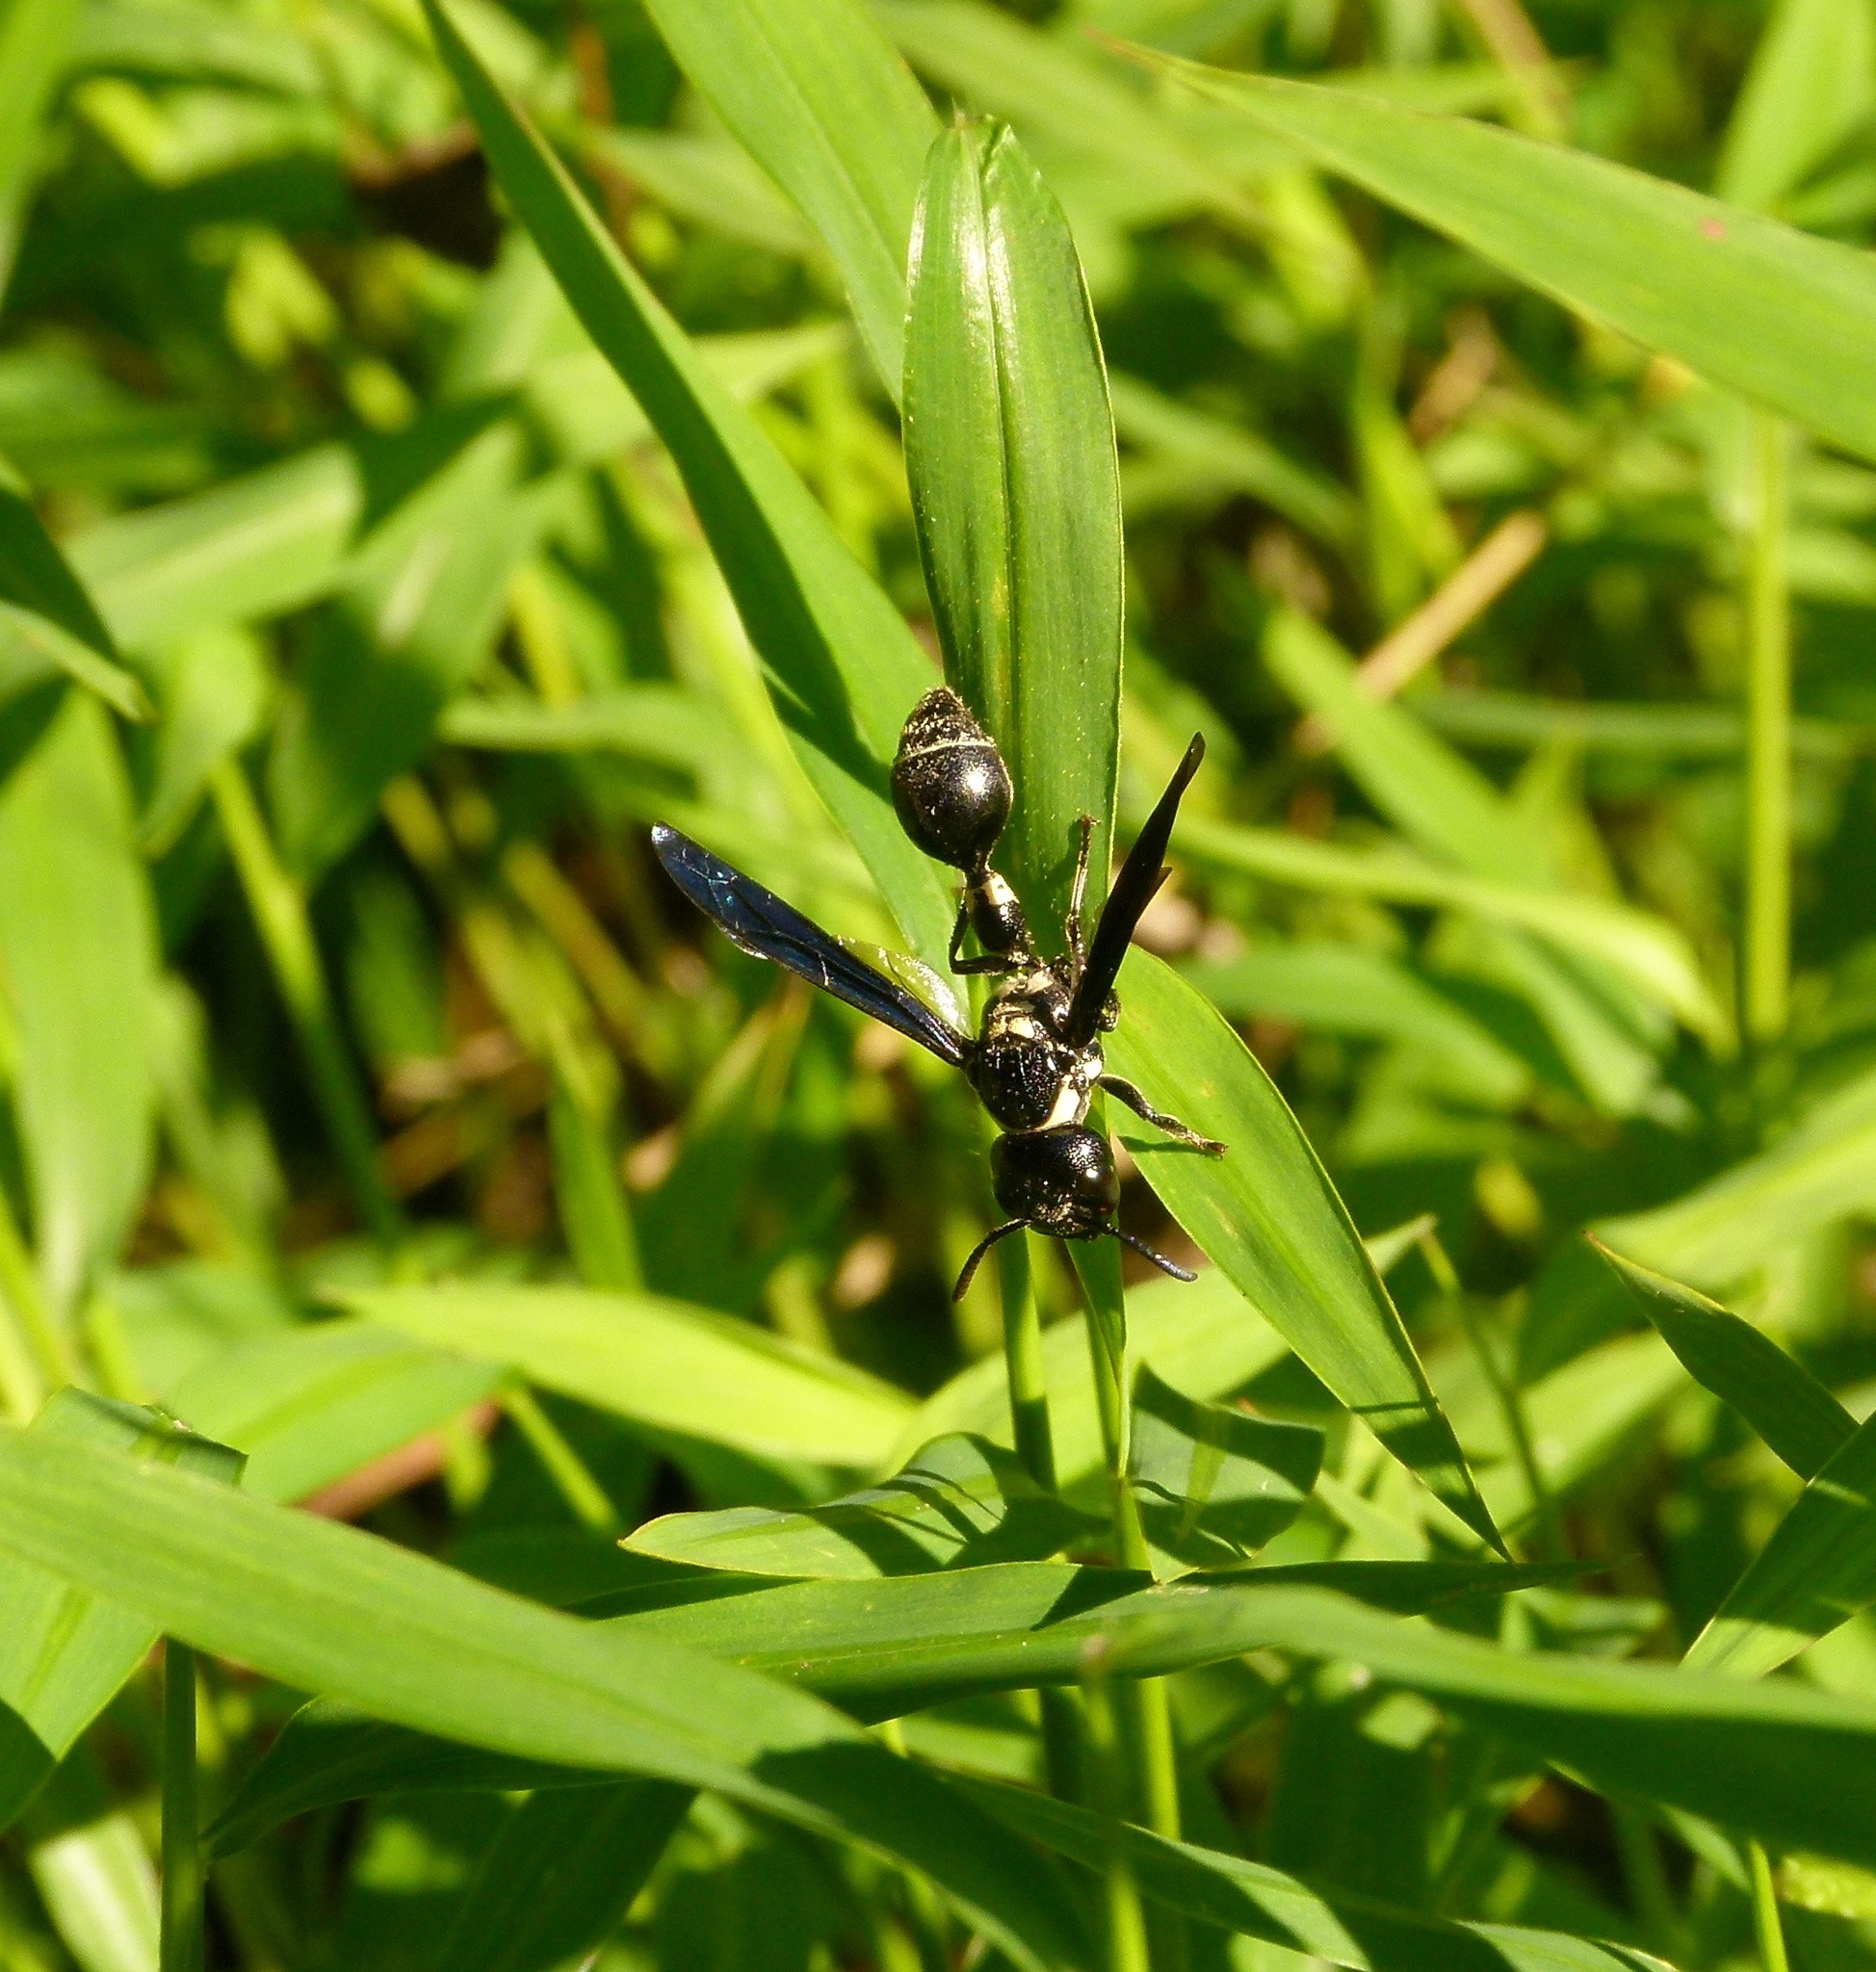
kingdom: Animalia
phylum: Arthropoda
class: Insecta
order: Hymenoptera
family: Eumenidae
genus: Zethus
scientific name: Zethus spinipes
